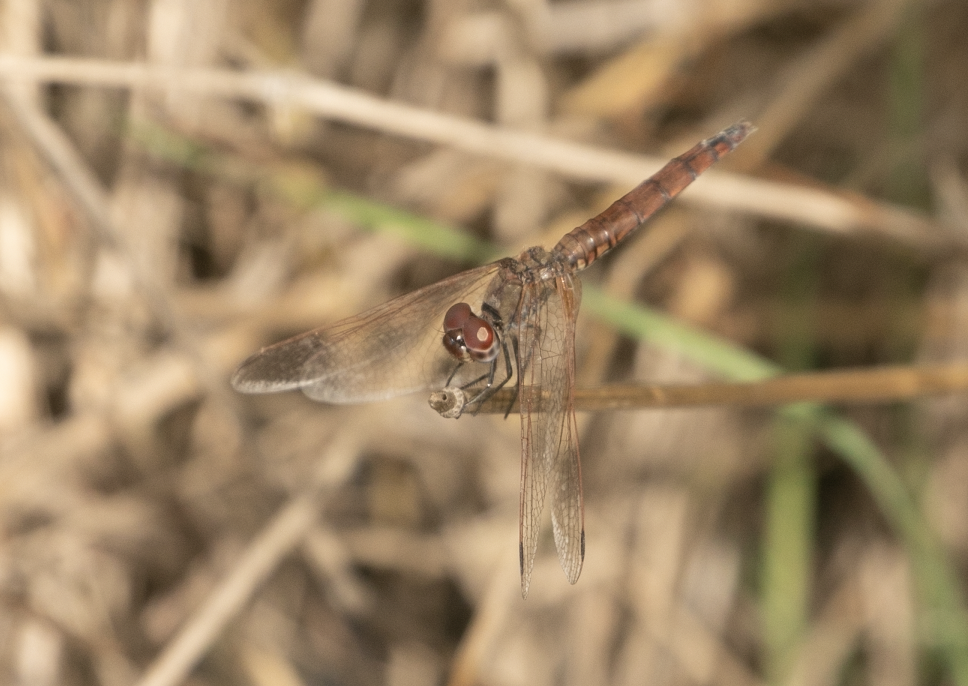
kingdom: Animalia
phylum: Arthropoda
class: Insecta
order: Odonata
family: Libellulidae
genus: Trithemis
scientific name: Trithemis annulata
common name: Violet dropwing
